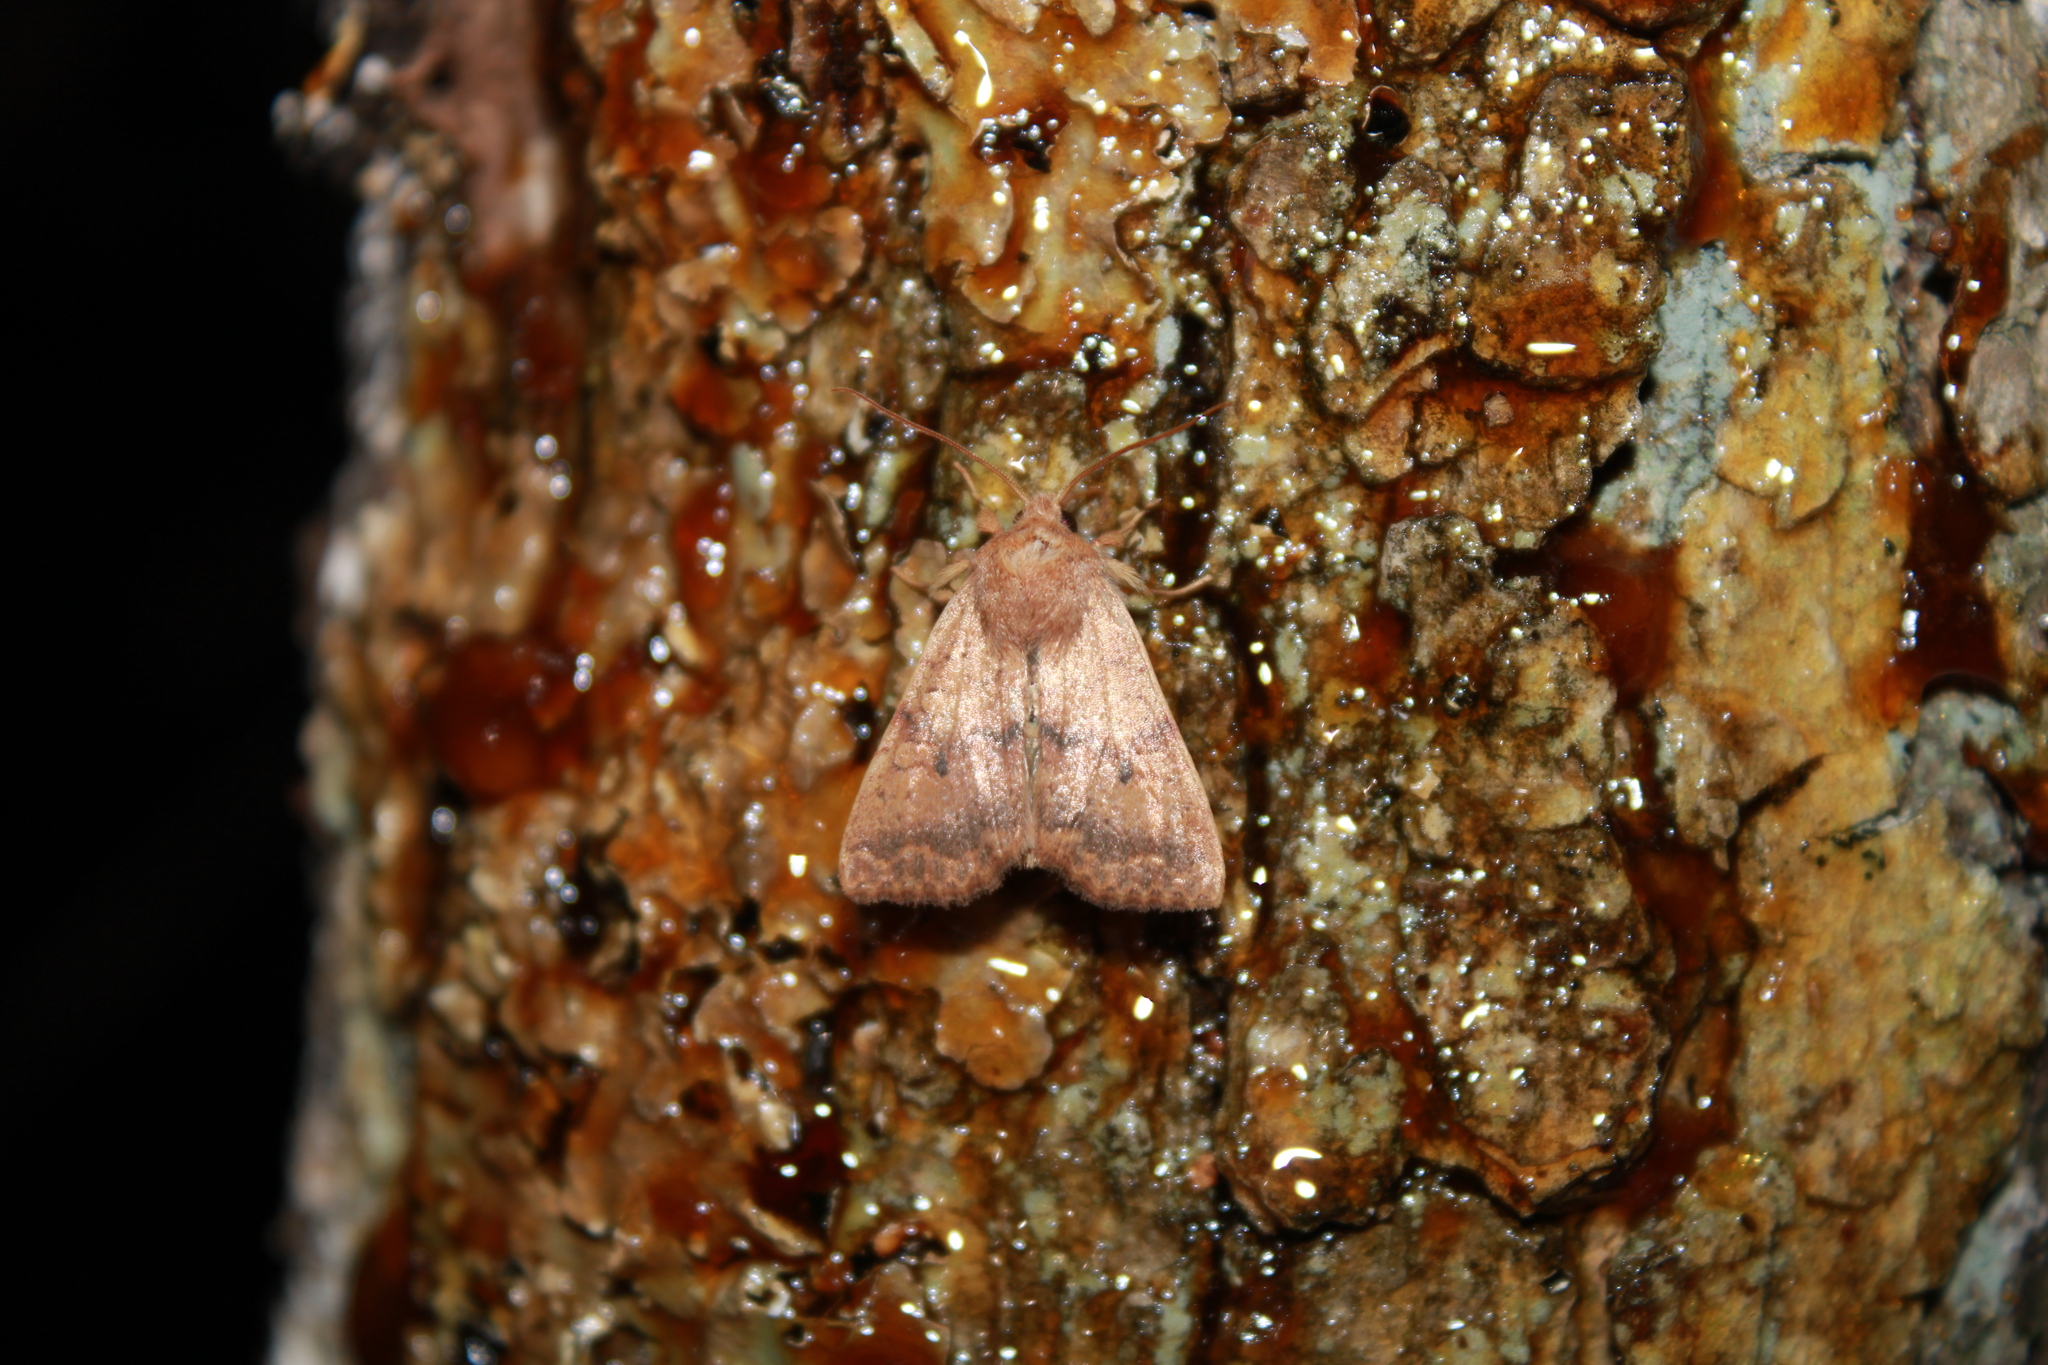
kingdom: Animalia
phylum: Arthropoda
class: Insecta
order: Lepidoptera
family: Noctuidae
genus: Agrochola
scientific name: Agrochola bicolorago
